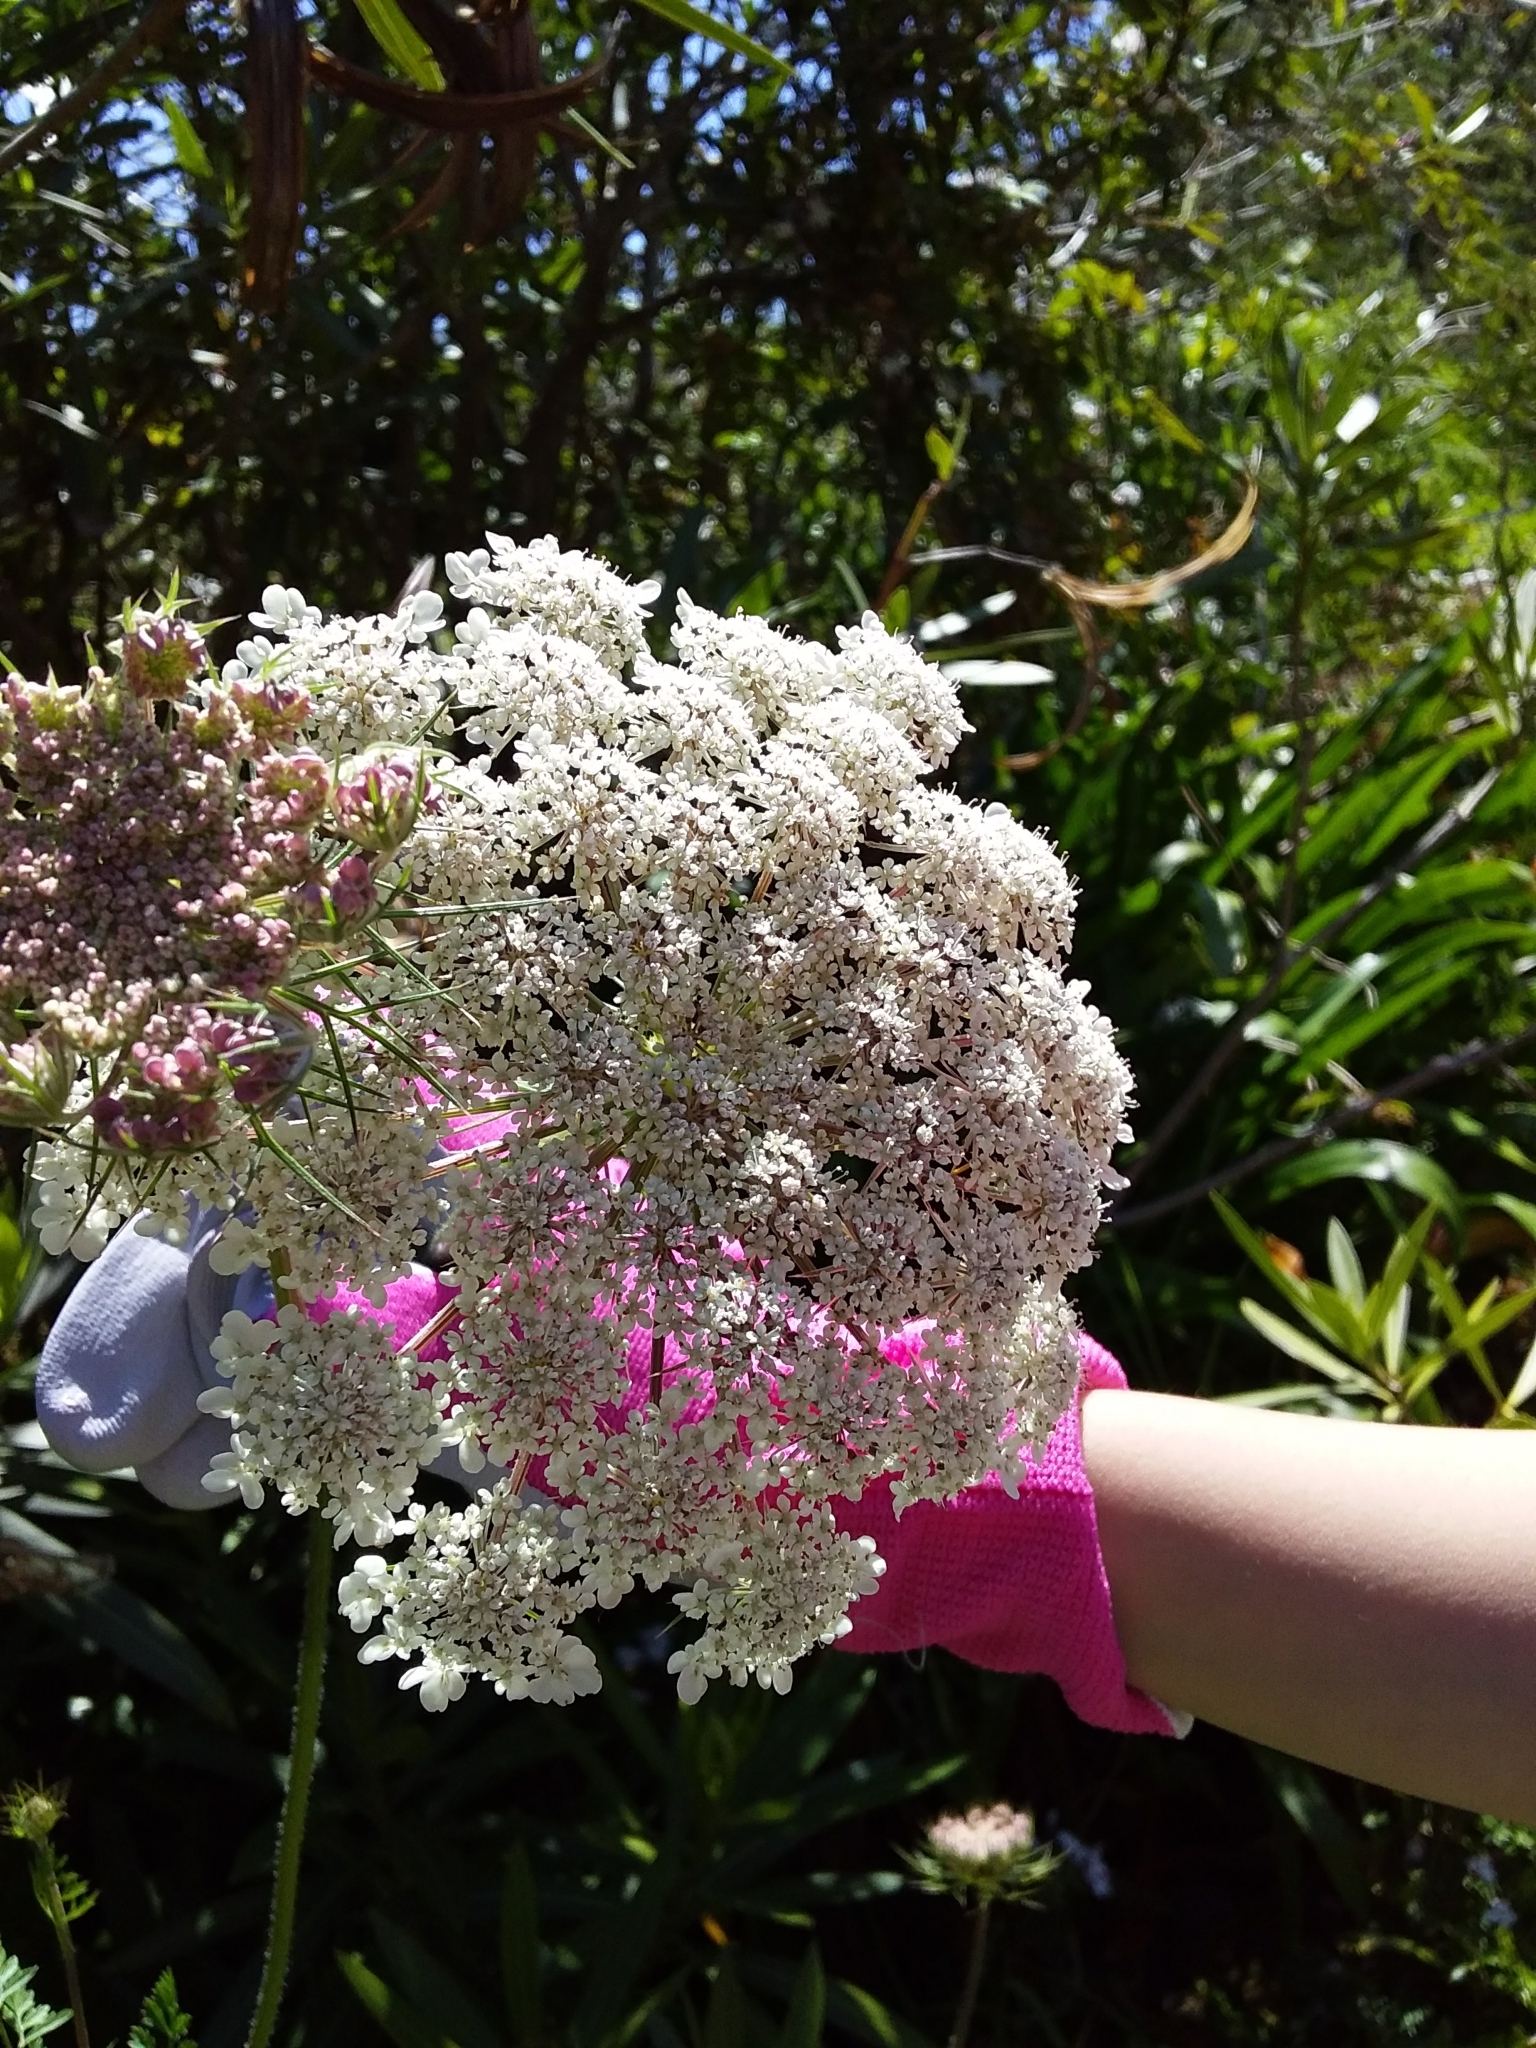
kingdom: Plantae
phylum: Tracheophyta
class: Magnoliopsida
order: Apiales
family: Apiaceae
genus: Daucus
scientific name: Daucus carota
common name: Wild carrot
